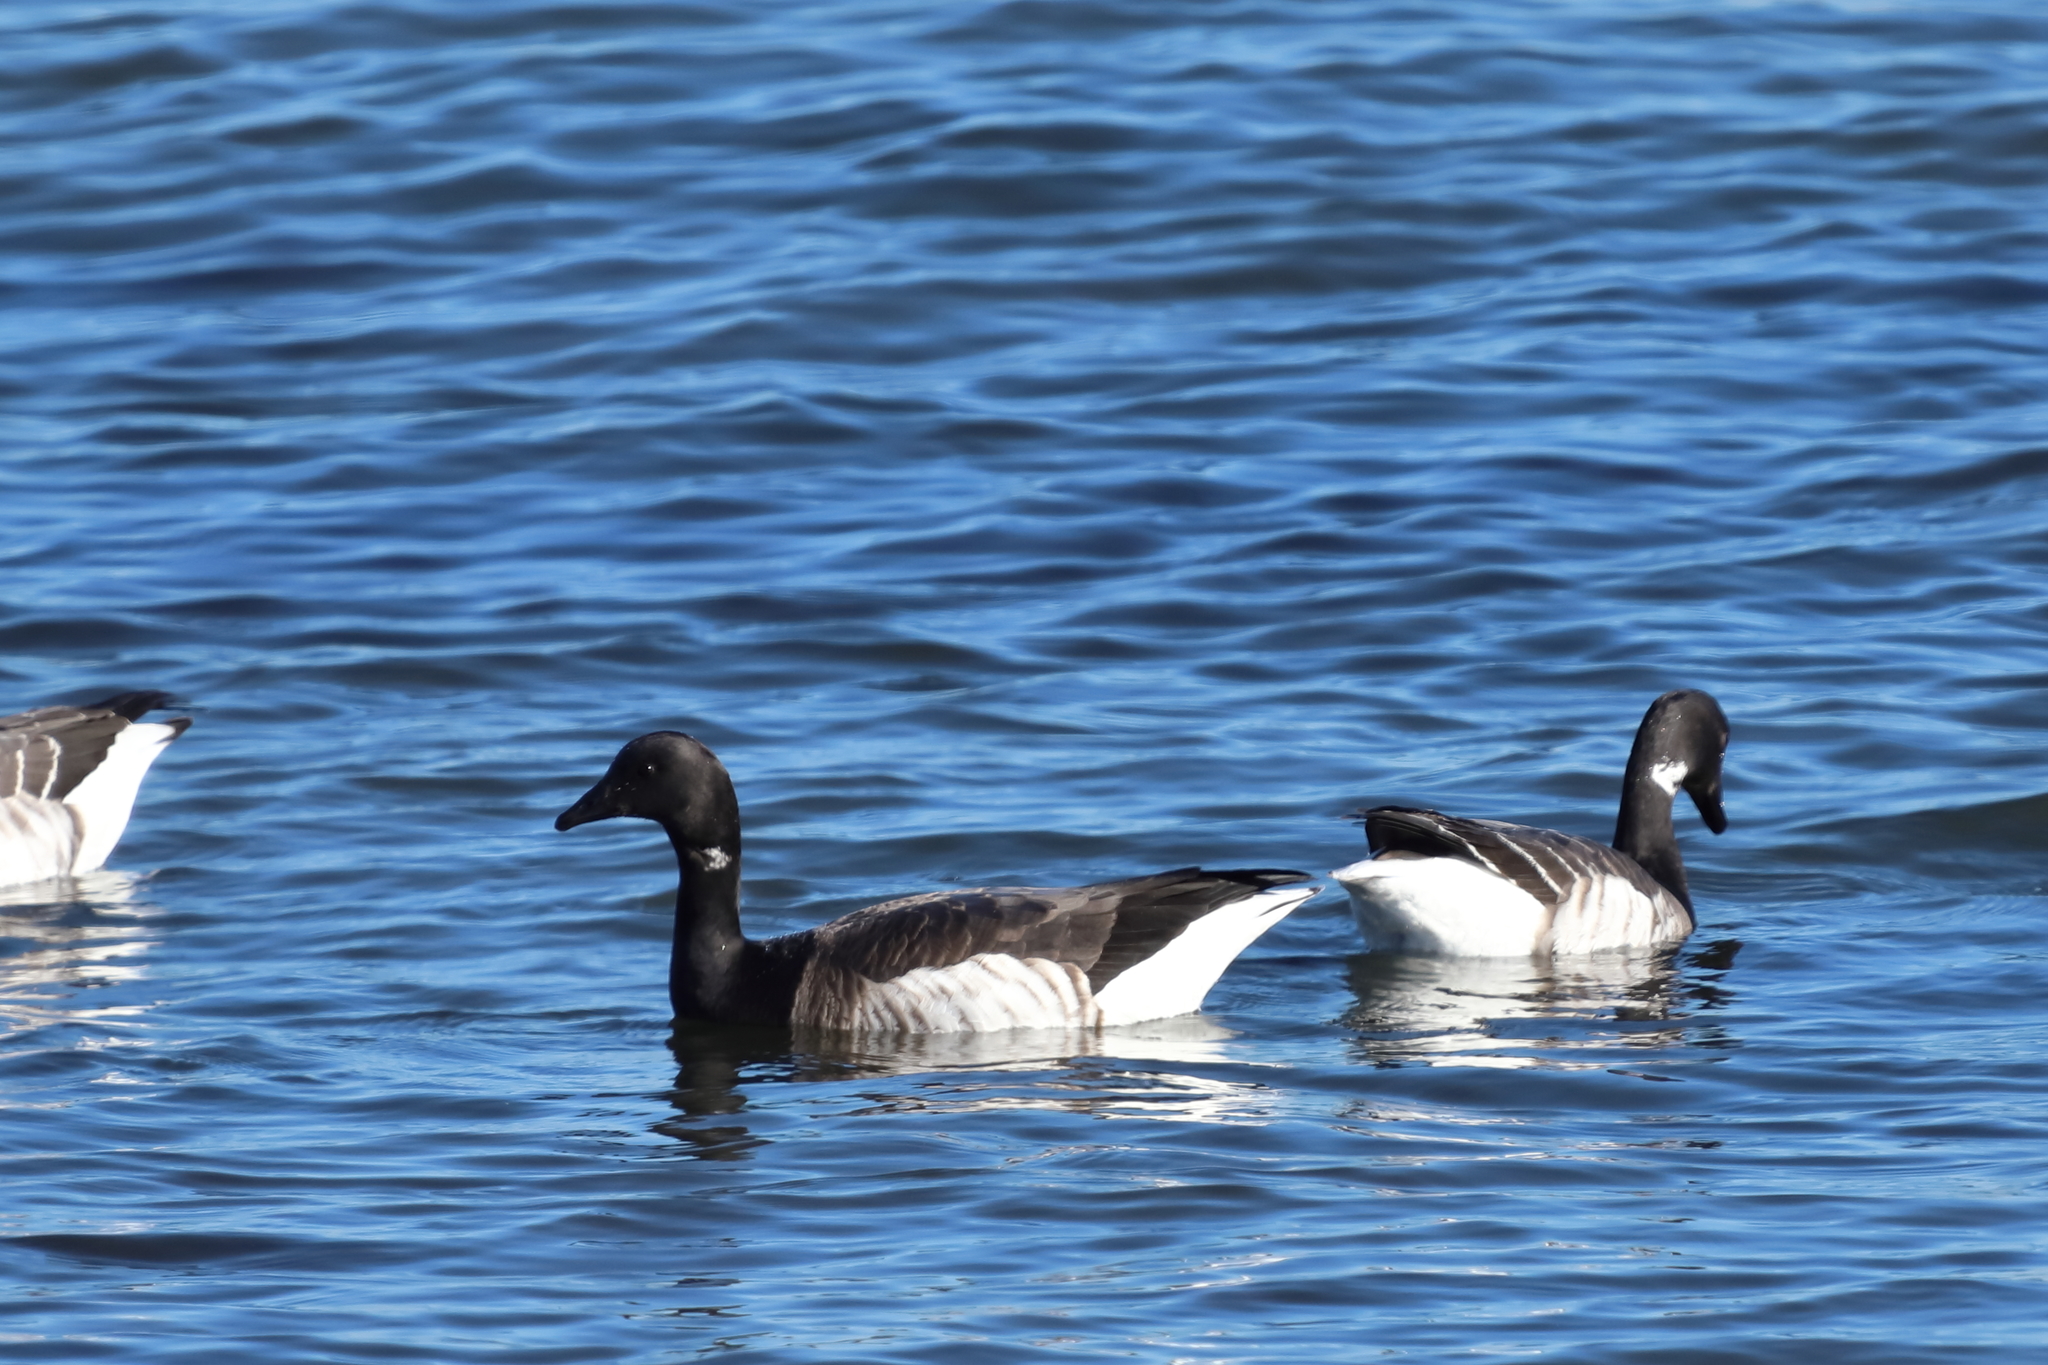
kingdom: Animalia
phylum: Chordata
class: Aves
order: Anseriformes
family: Anatidae
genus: Branta
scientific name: Branta bernicla
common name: Brant goose
